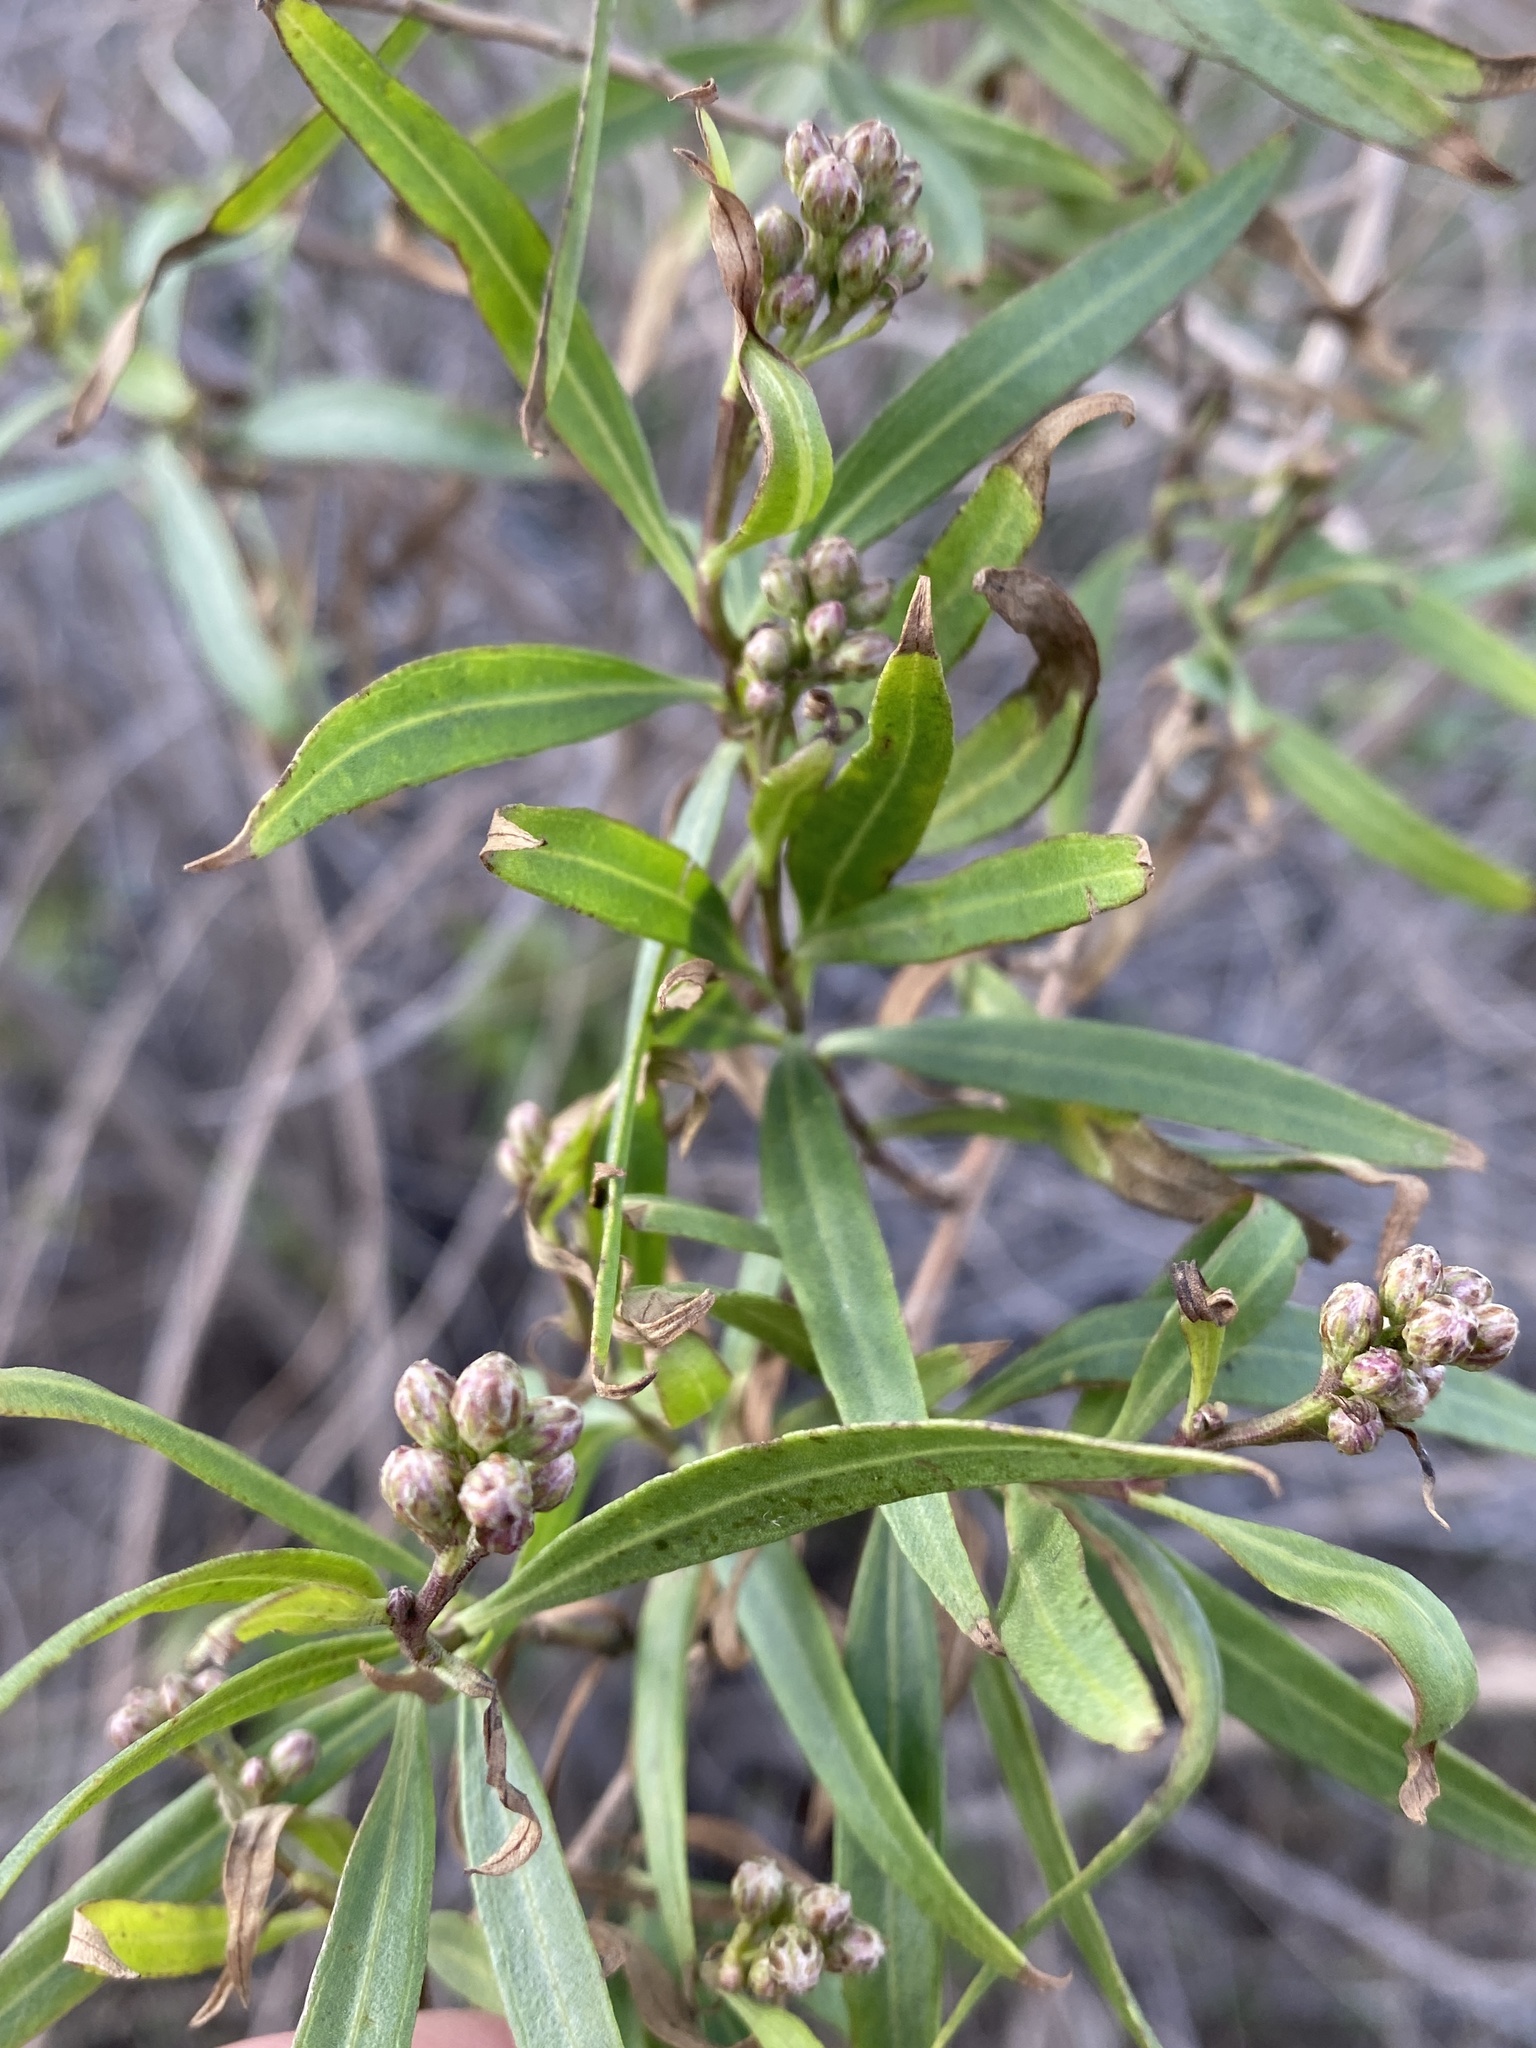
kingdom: Plantae
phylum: Tracheophyta
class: Magnoliopsida
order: Asterales
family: Asteraceae
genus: Baccharis
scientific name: Baccharis salicifolia
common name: Sticky baccharis
